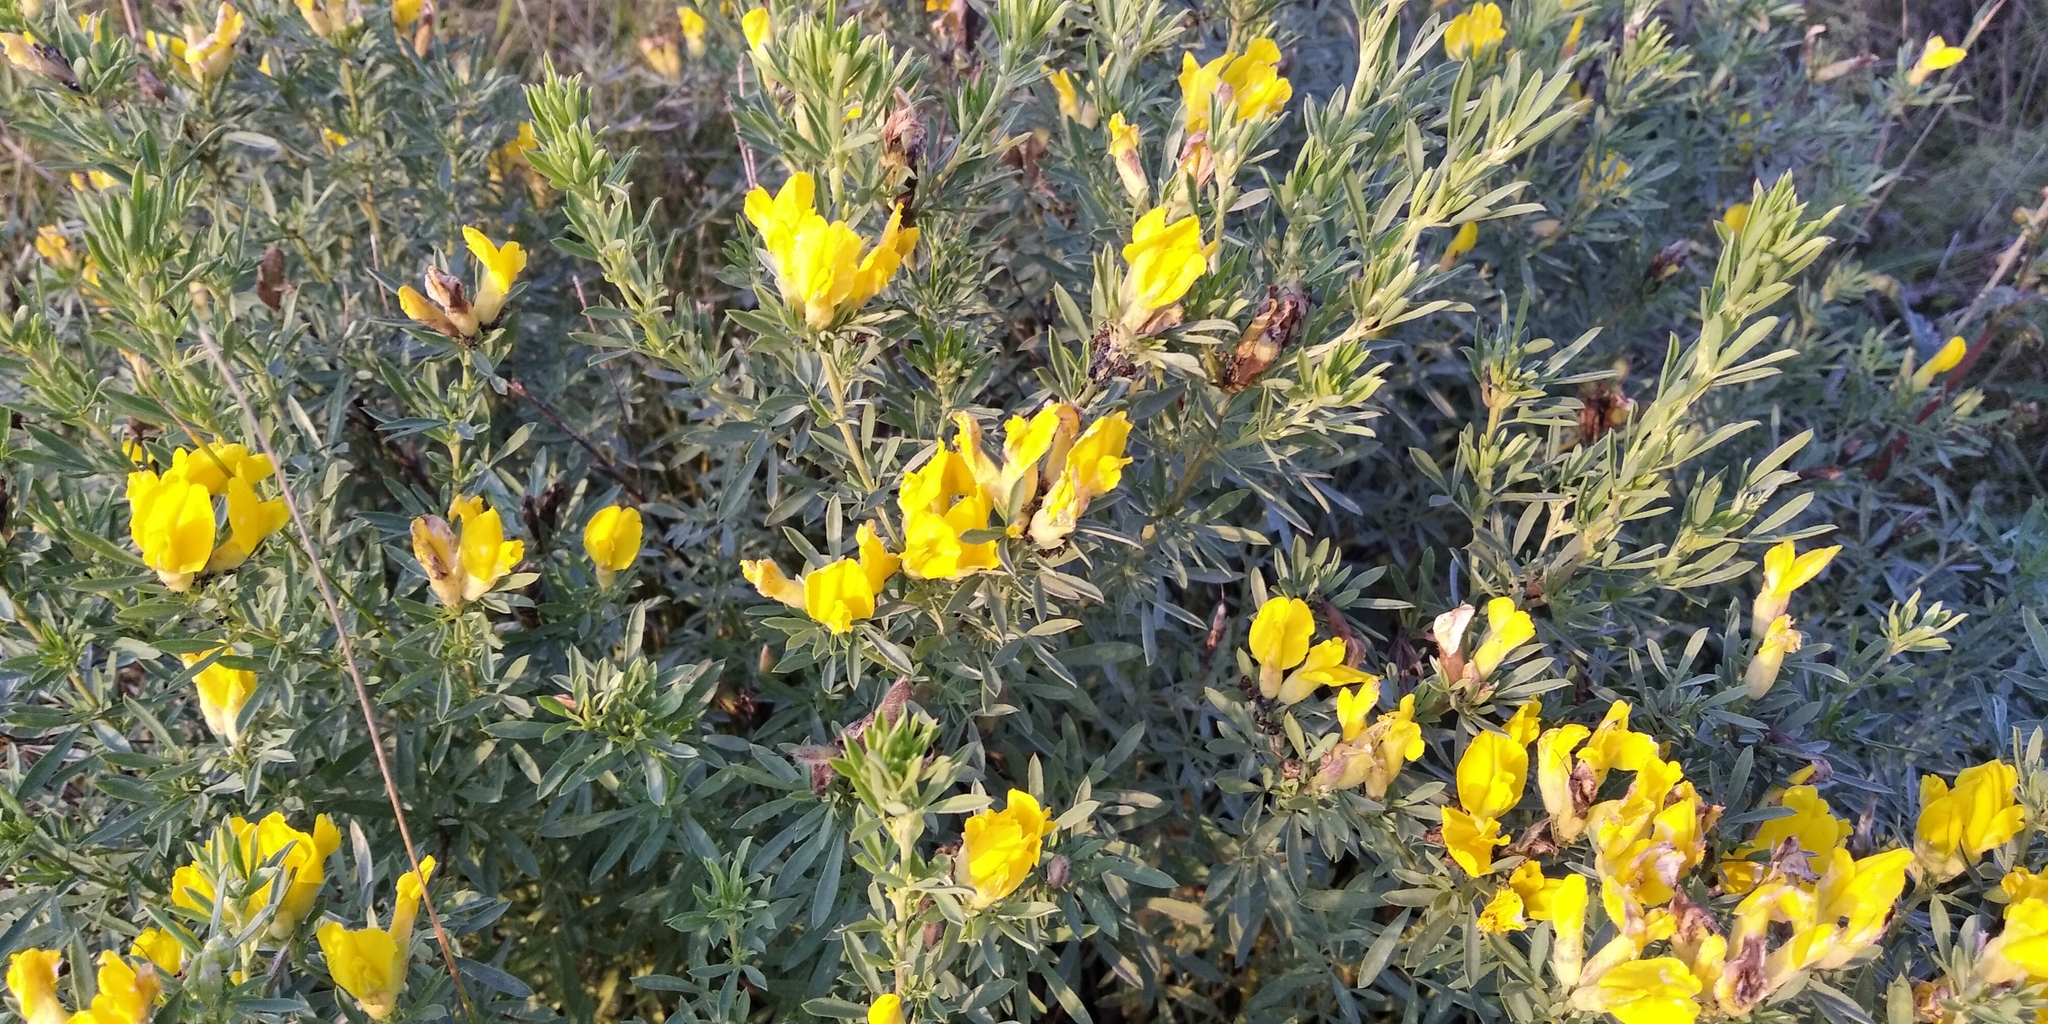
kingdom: Plantae
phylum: Tracheophyta
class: Magnoliopsida
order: Fabales
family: Fabaceae
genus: Chamaecytisus
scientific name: Chamaecytisus austriacus
